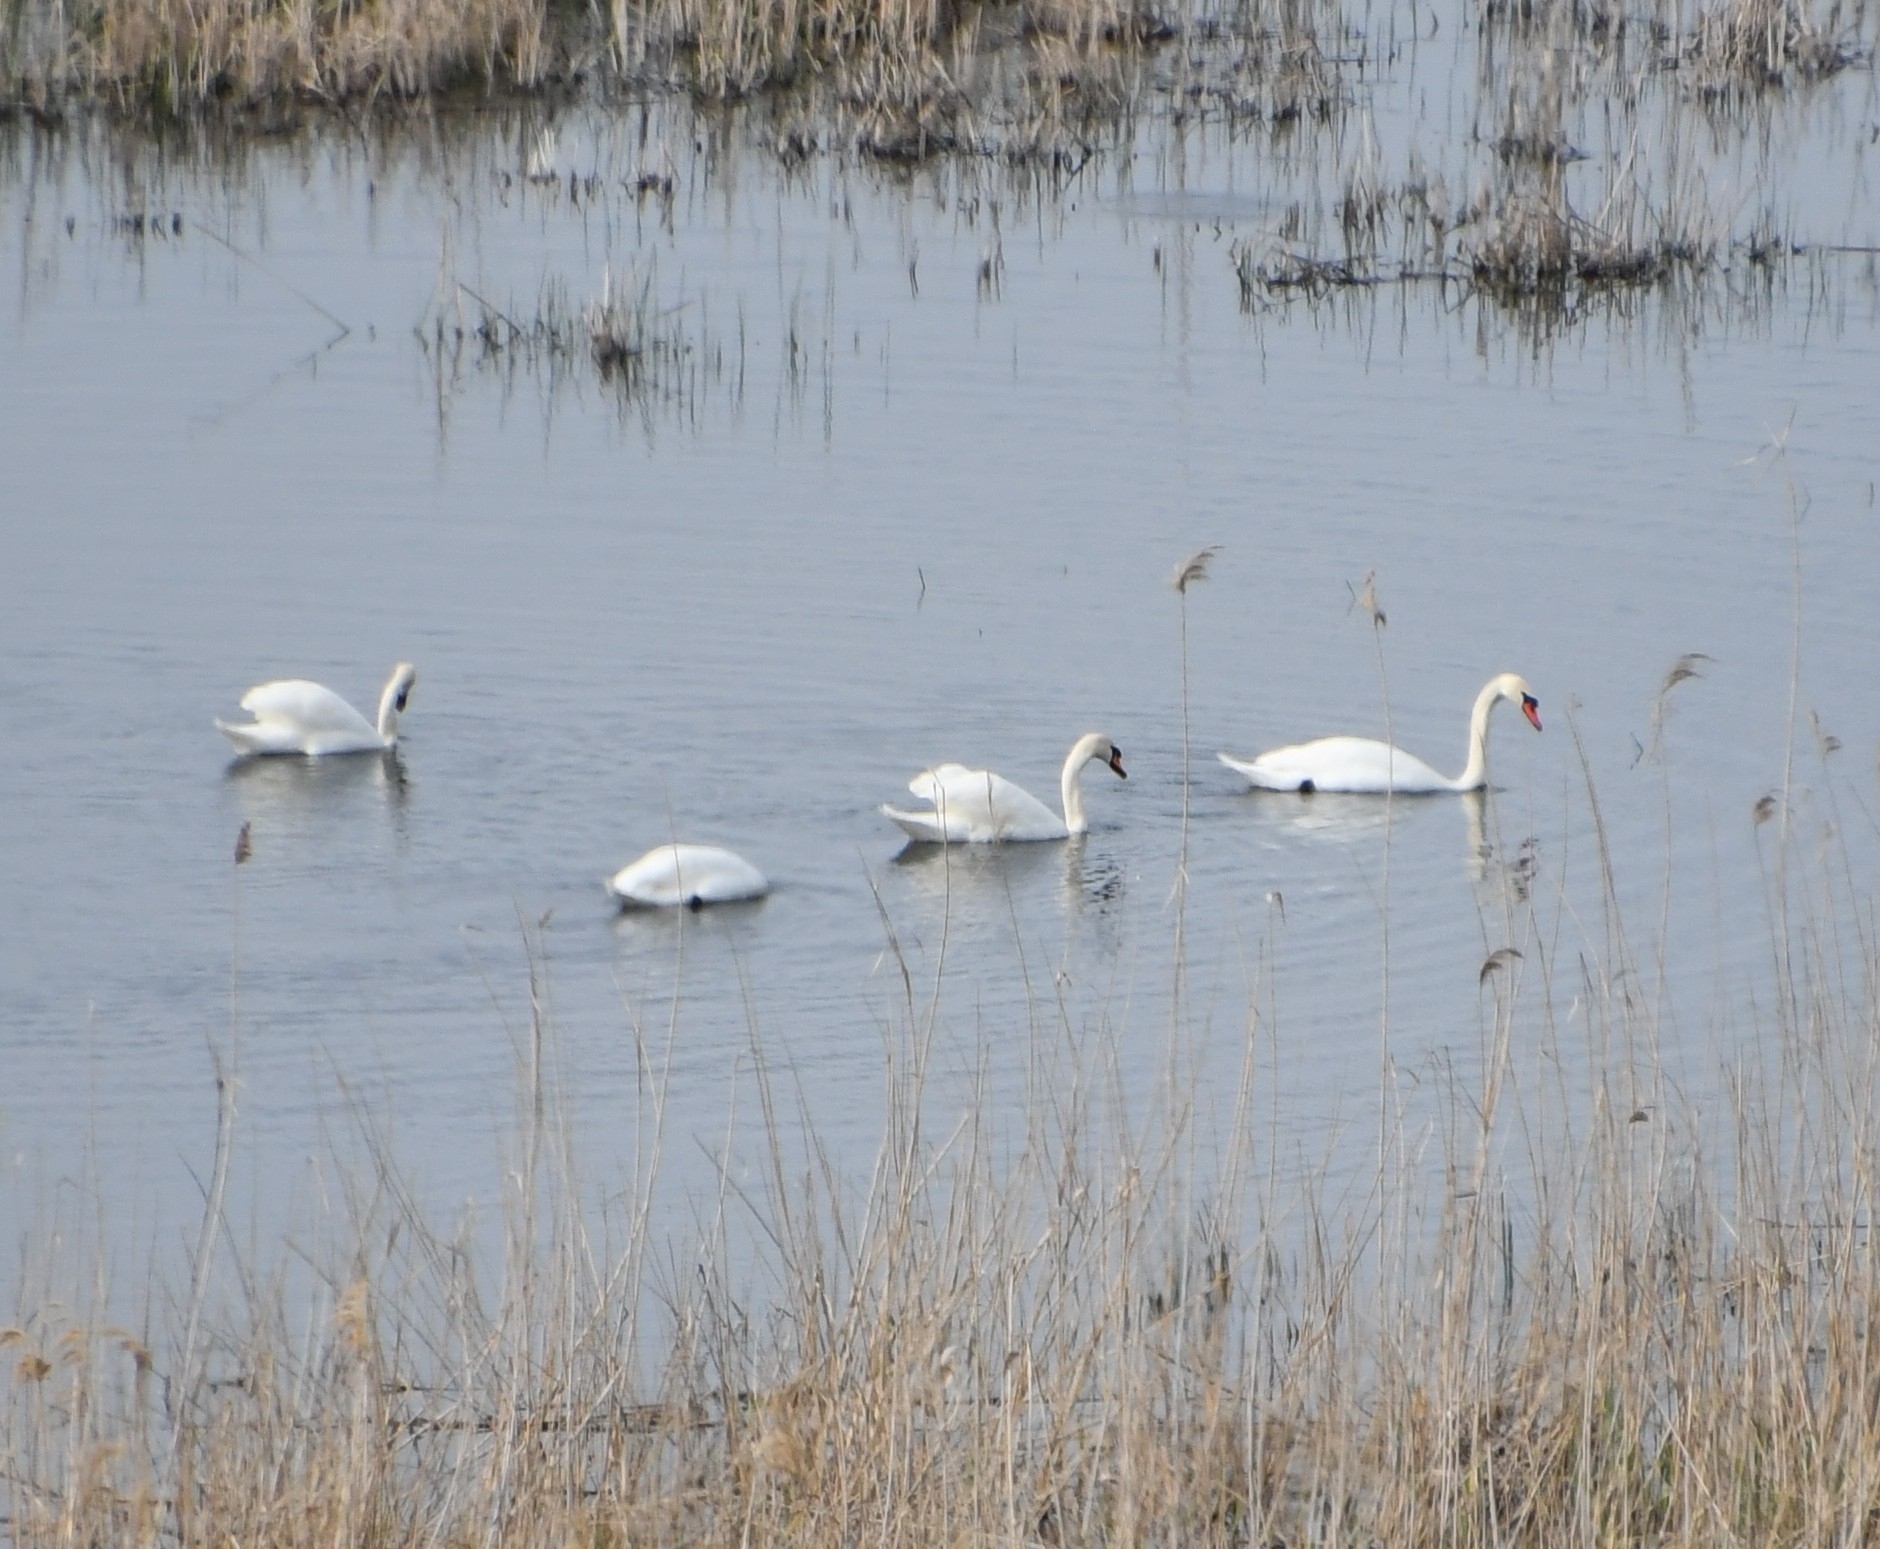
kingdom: Animalia
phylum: Chordata
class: Aves
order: Anseriformes
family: Anatidae
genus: Cygnus
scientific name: Cygnus olor
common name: Mute swan
